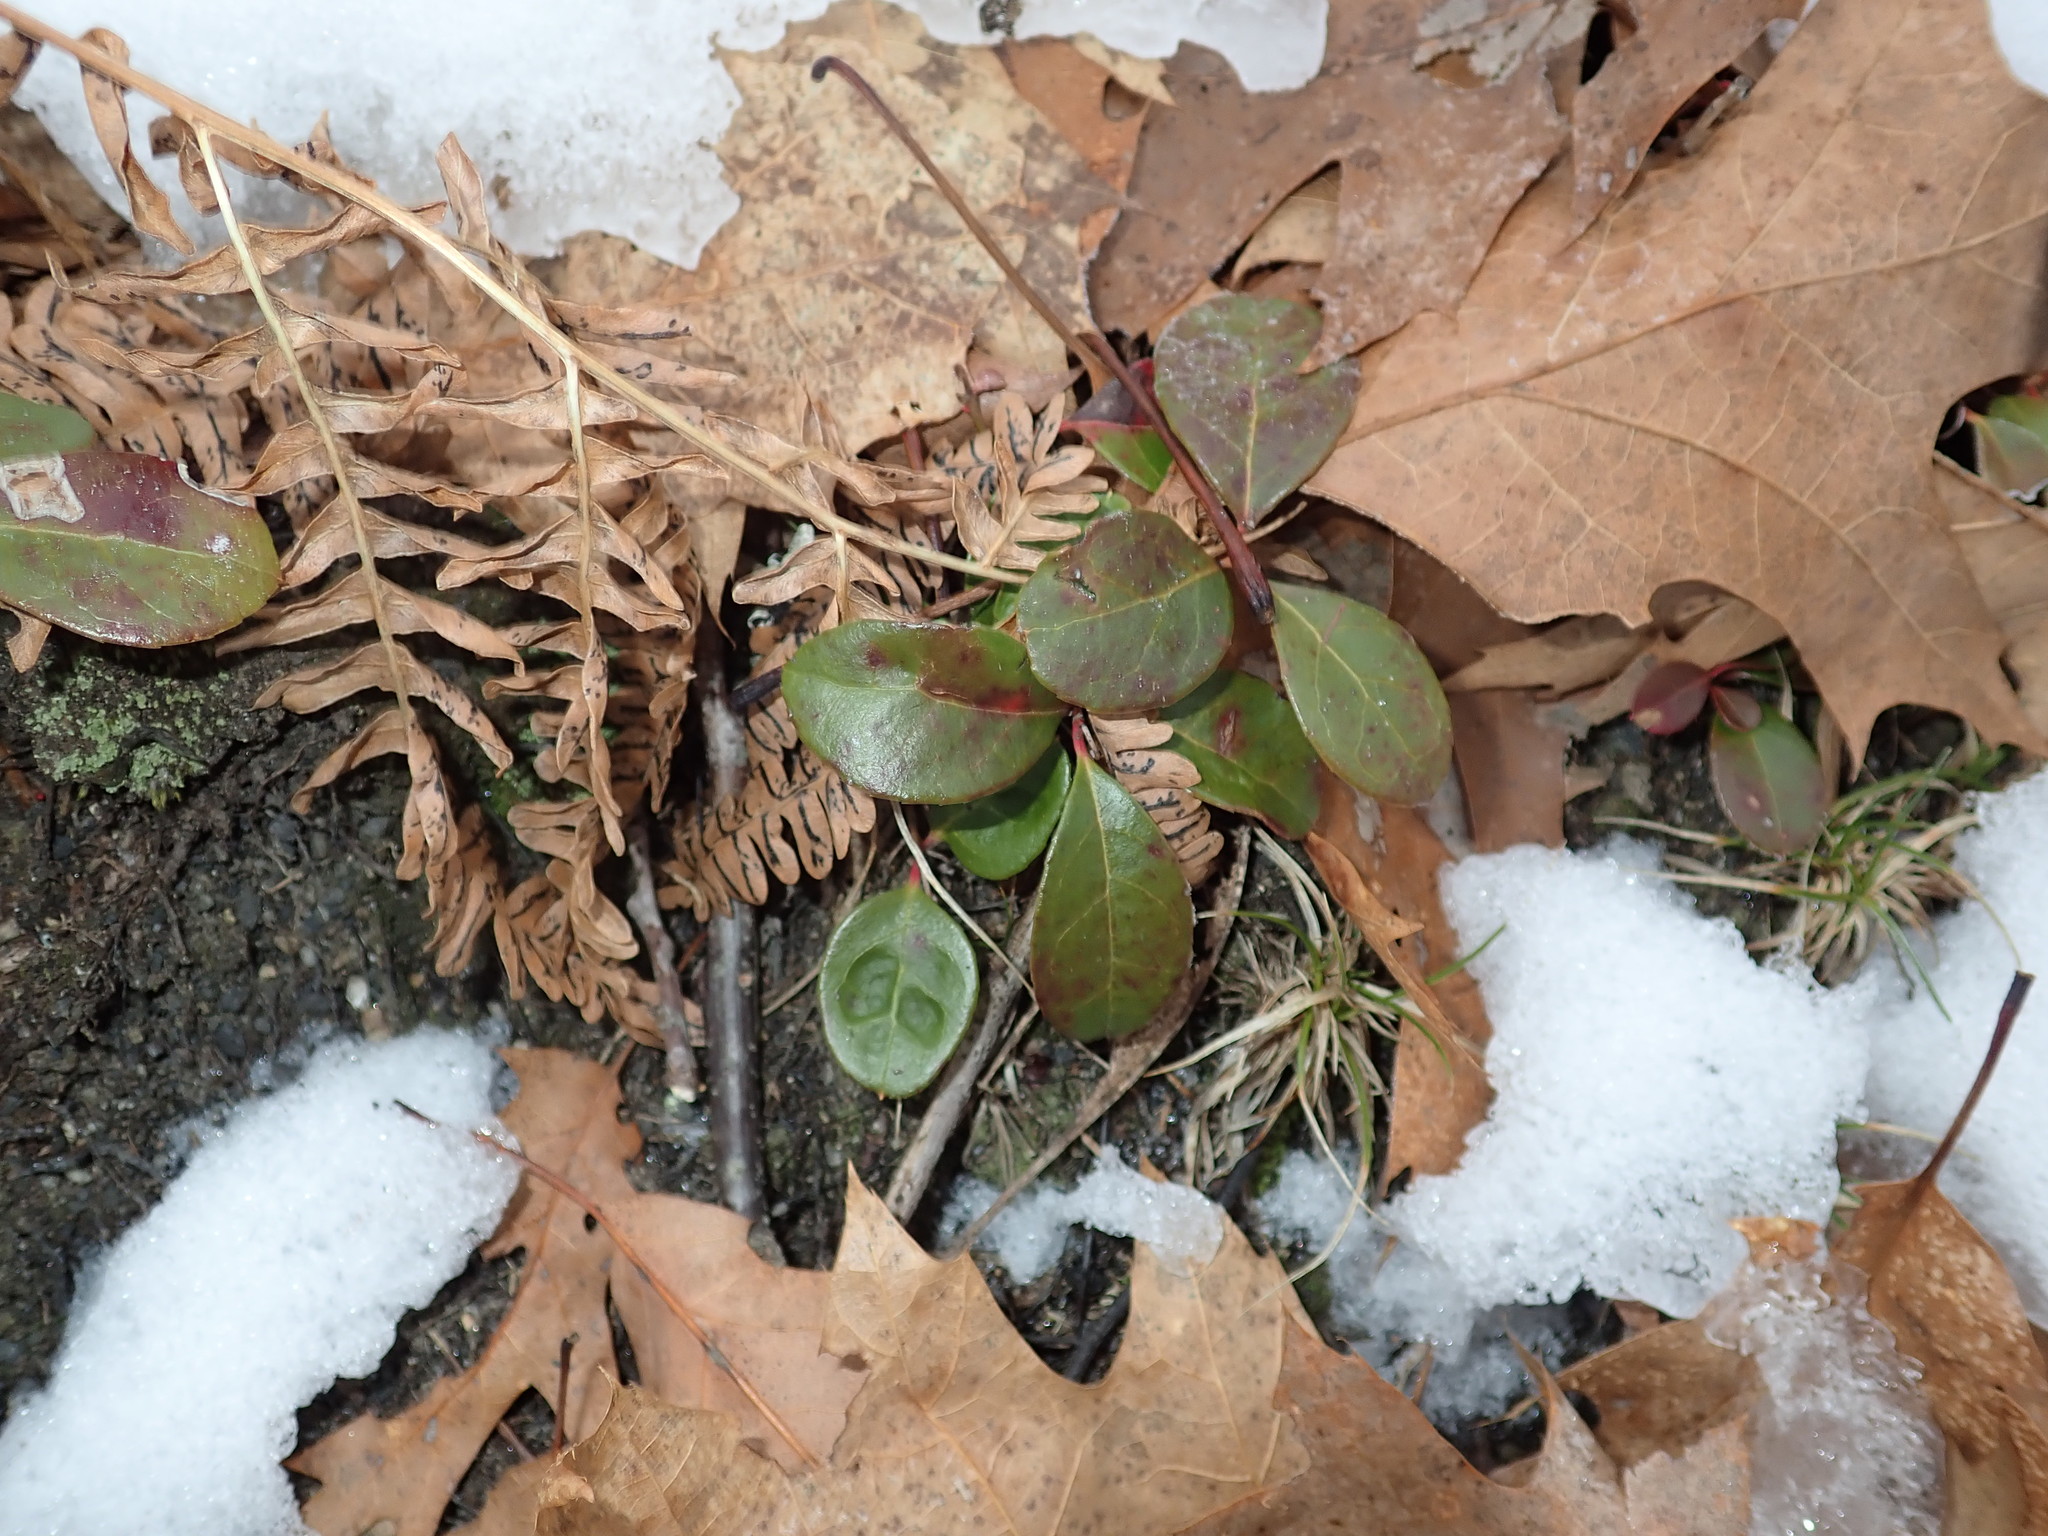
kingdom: Plantae
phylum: Tracheophyta
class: Magnoliopsida
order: Ericales
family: Ericaceae
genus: Gaultheria
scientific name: Gaultheria procumbens
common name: Checkerberry
